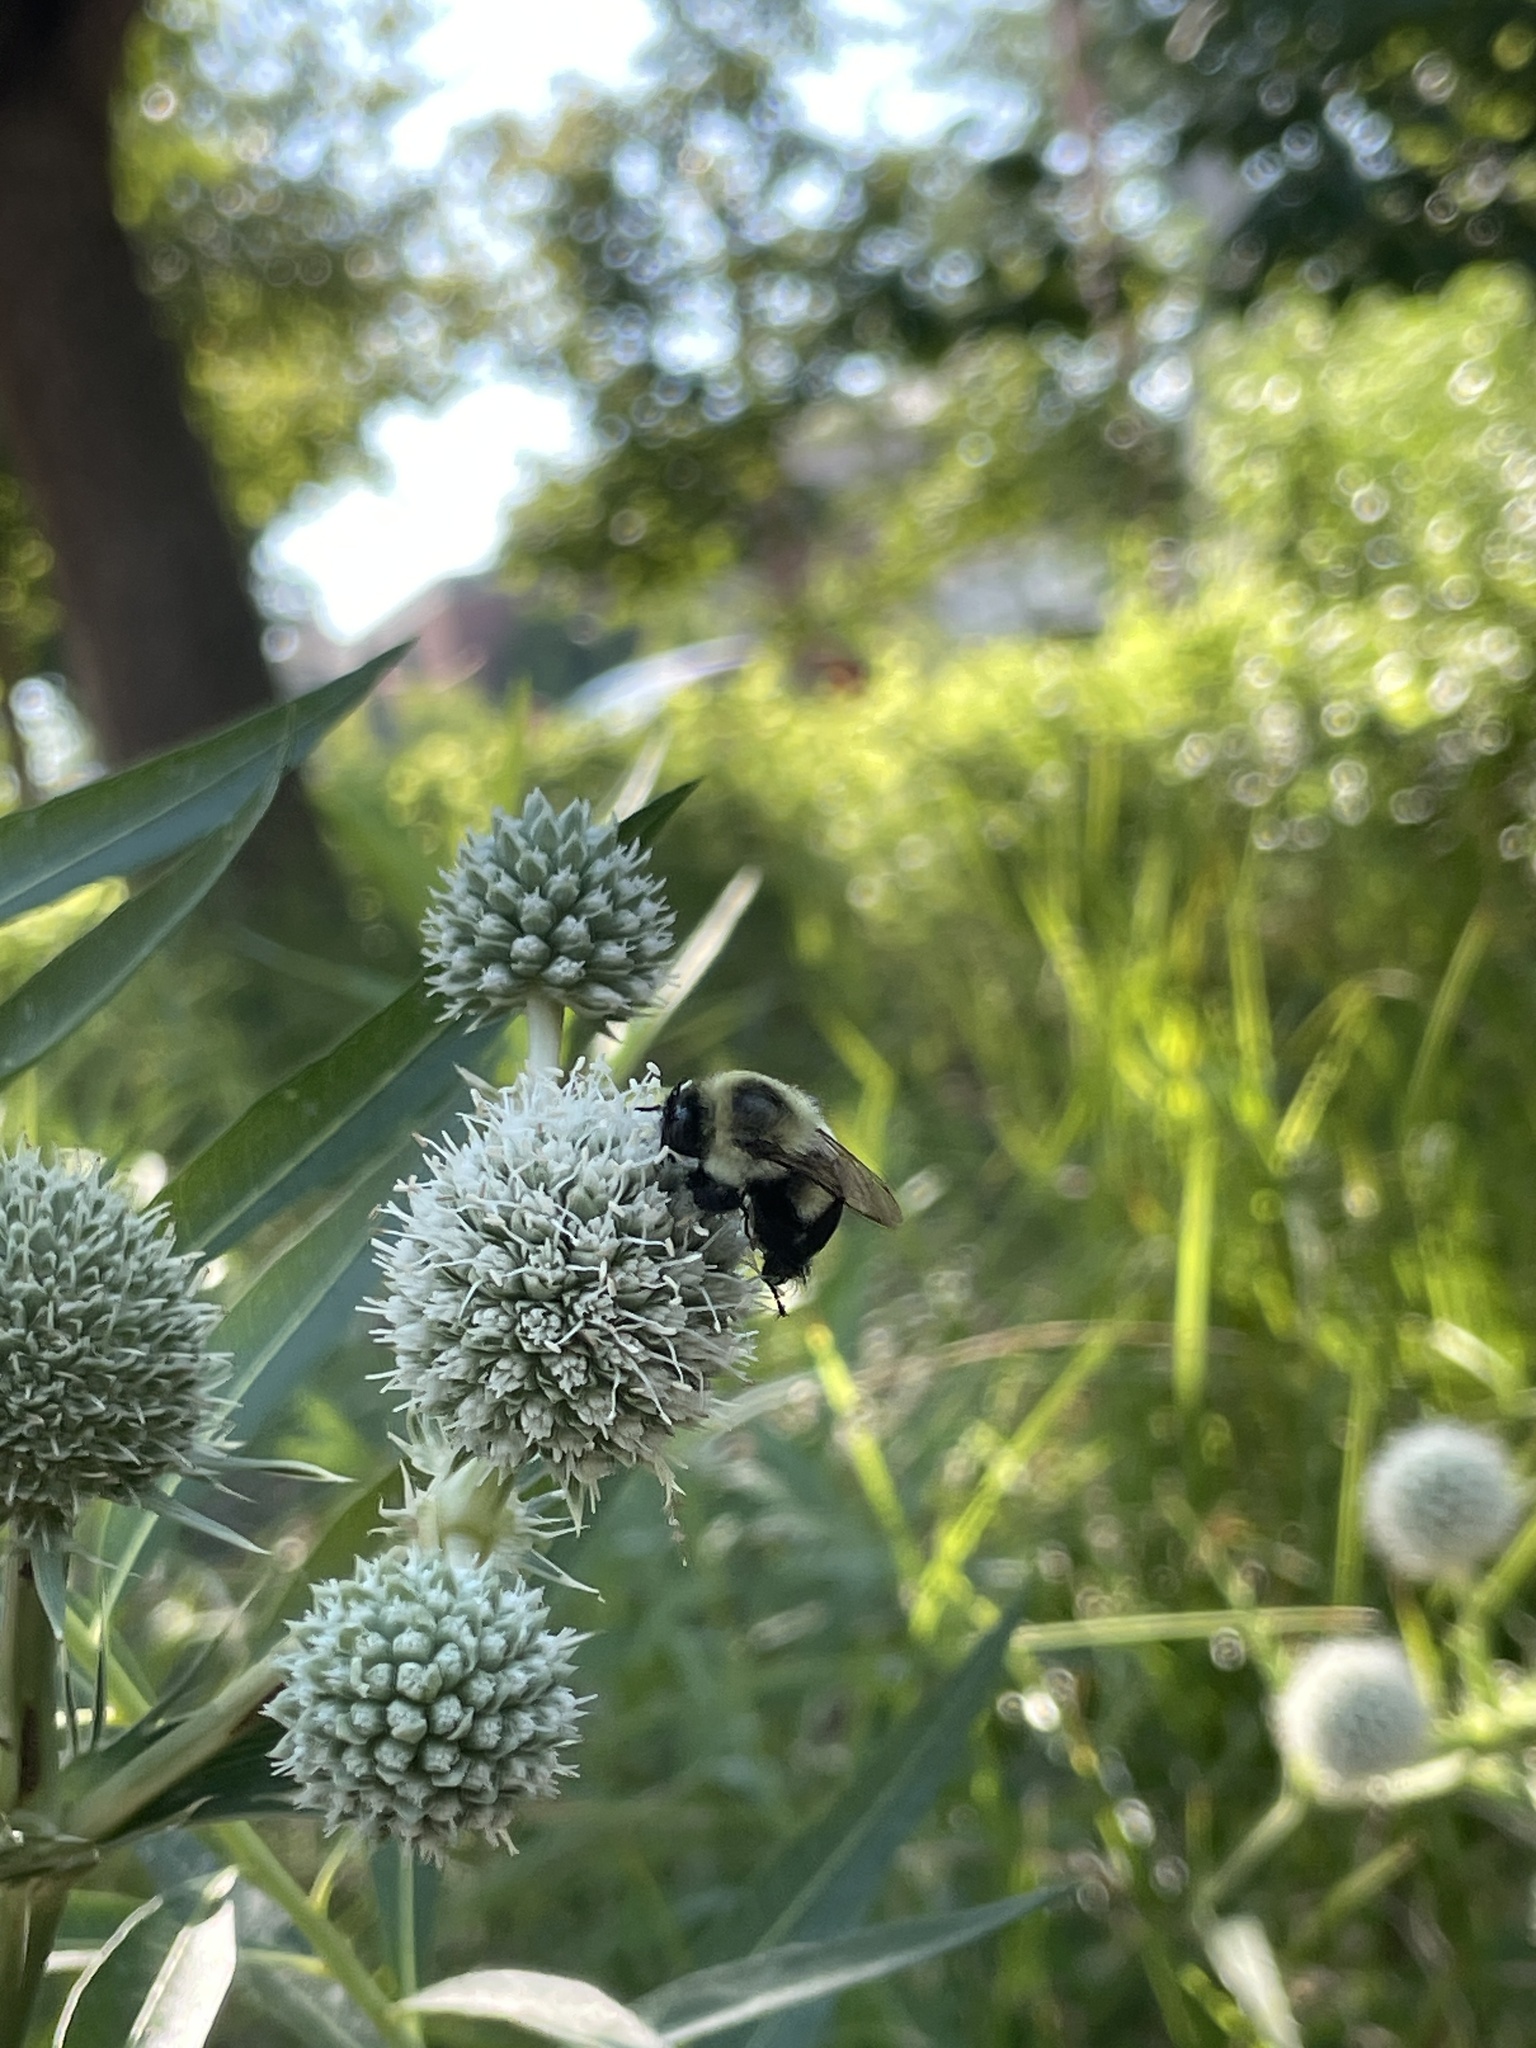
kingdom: Animalia
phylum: Arthropoda
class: Insecta
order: Hymenoptera
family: Apidae
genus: Bombus
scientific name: Bombus impatiens
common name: Common eastern bumble bee
